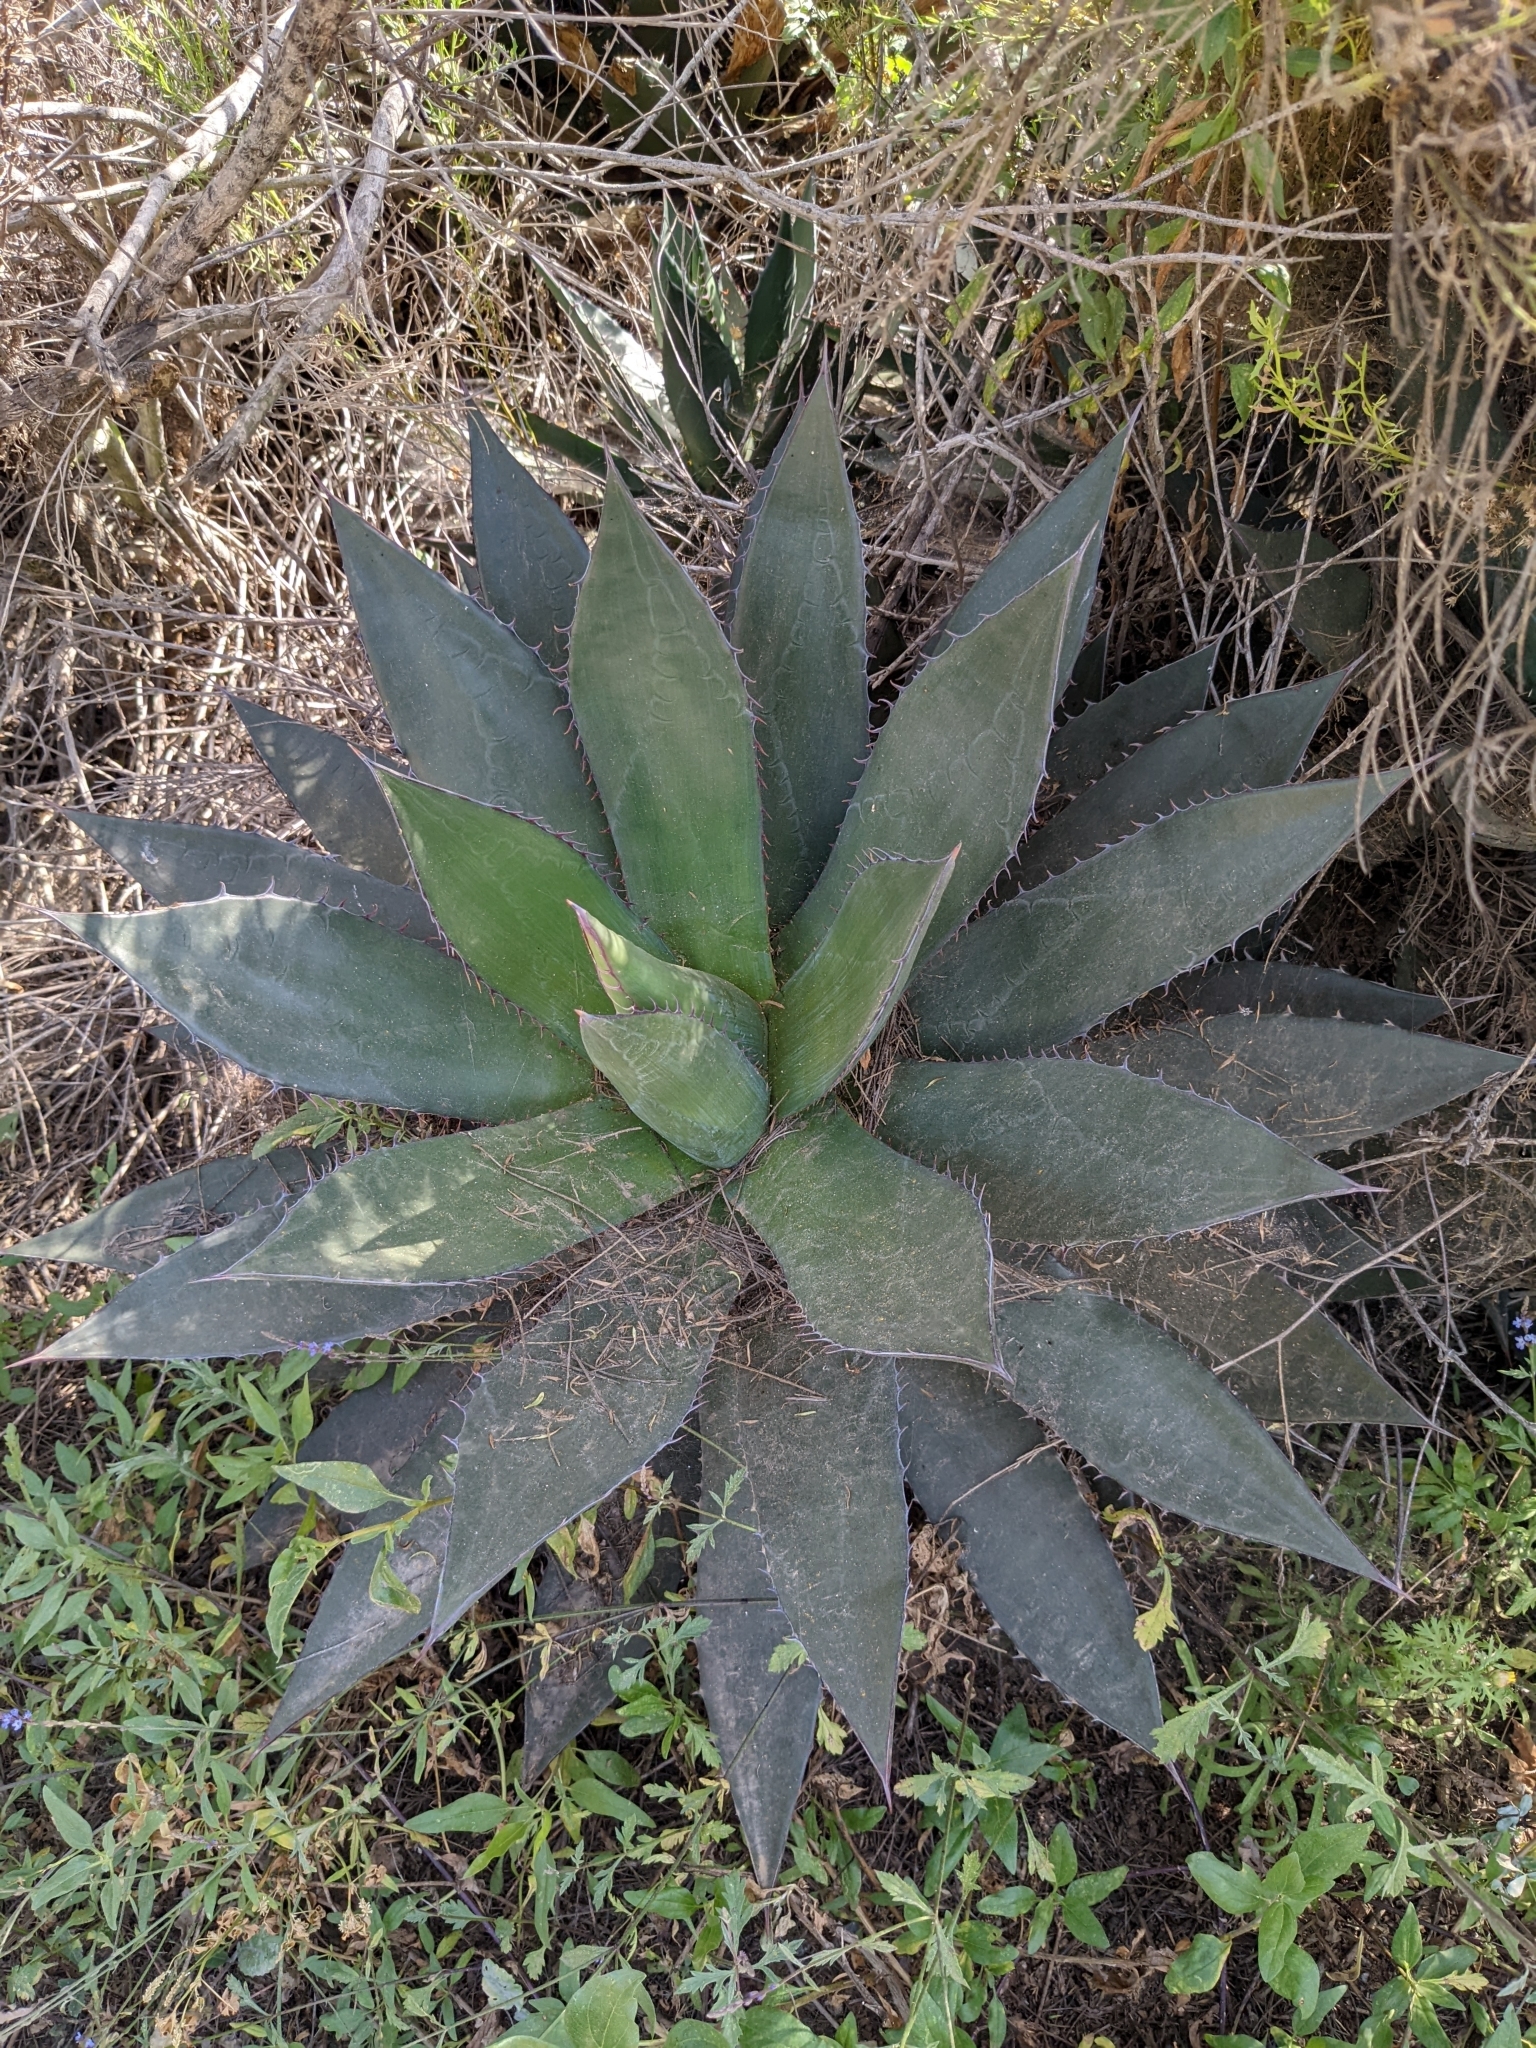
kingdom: Plantae
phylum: Tracheophyta
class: Liliopsida
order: Asparagales
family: Asparagaceae
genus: Agave
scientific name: Agave shawii
